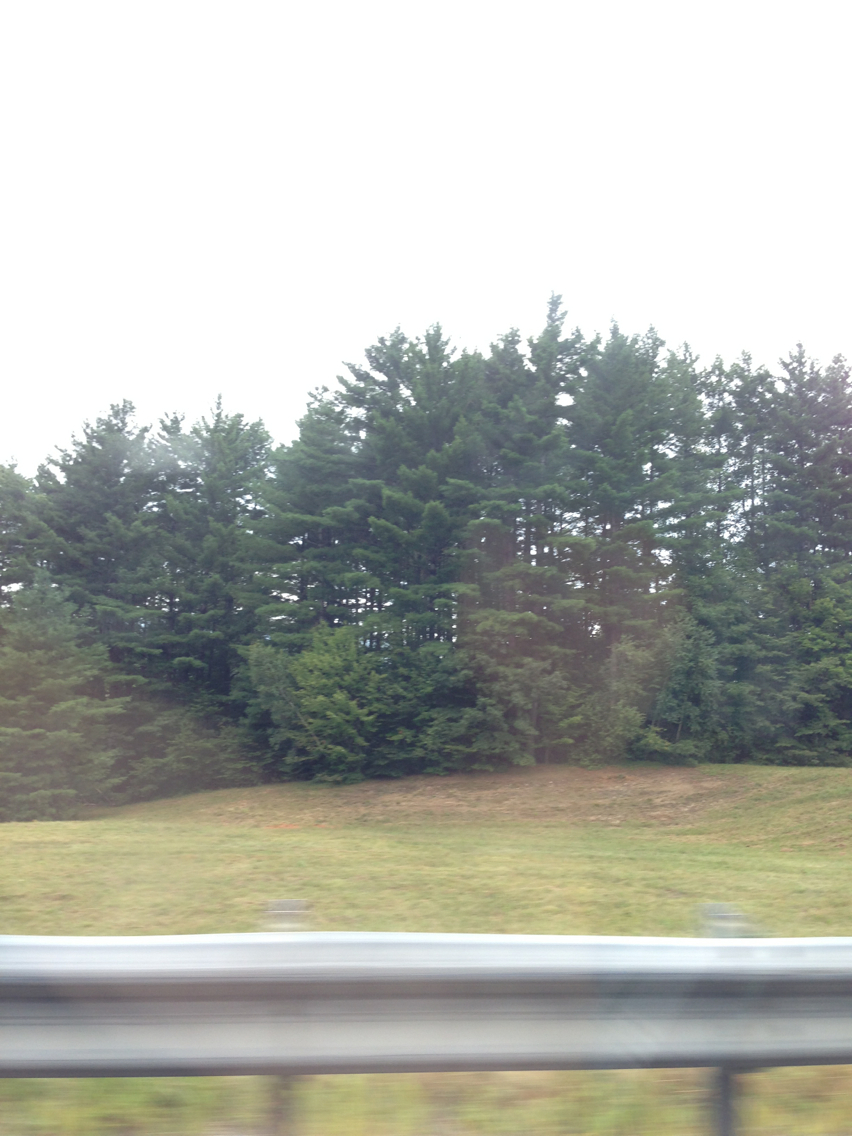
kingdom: Plantae
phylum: Tracheophyta
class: Pinopsida
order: Pinales
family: Pinaceae
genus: Pinus
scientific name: Pinus strobus
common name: Weymouth pine
